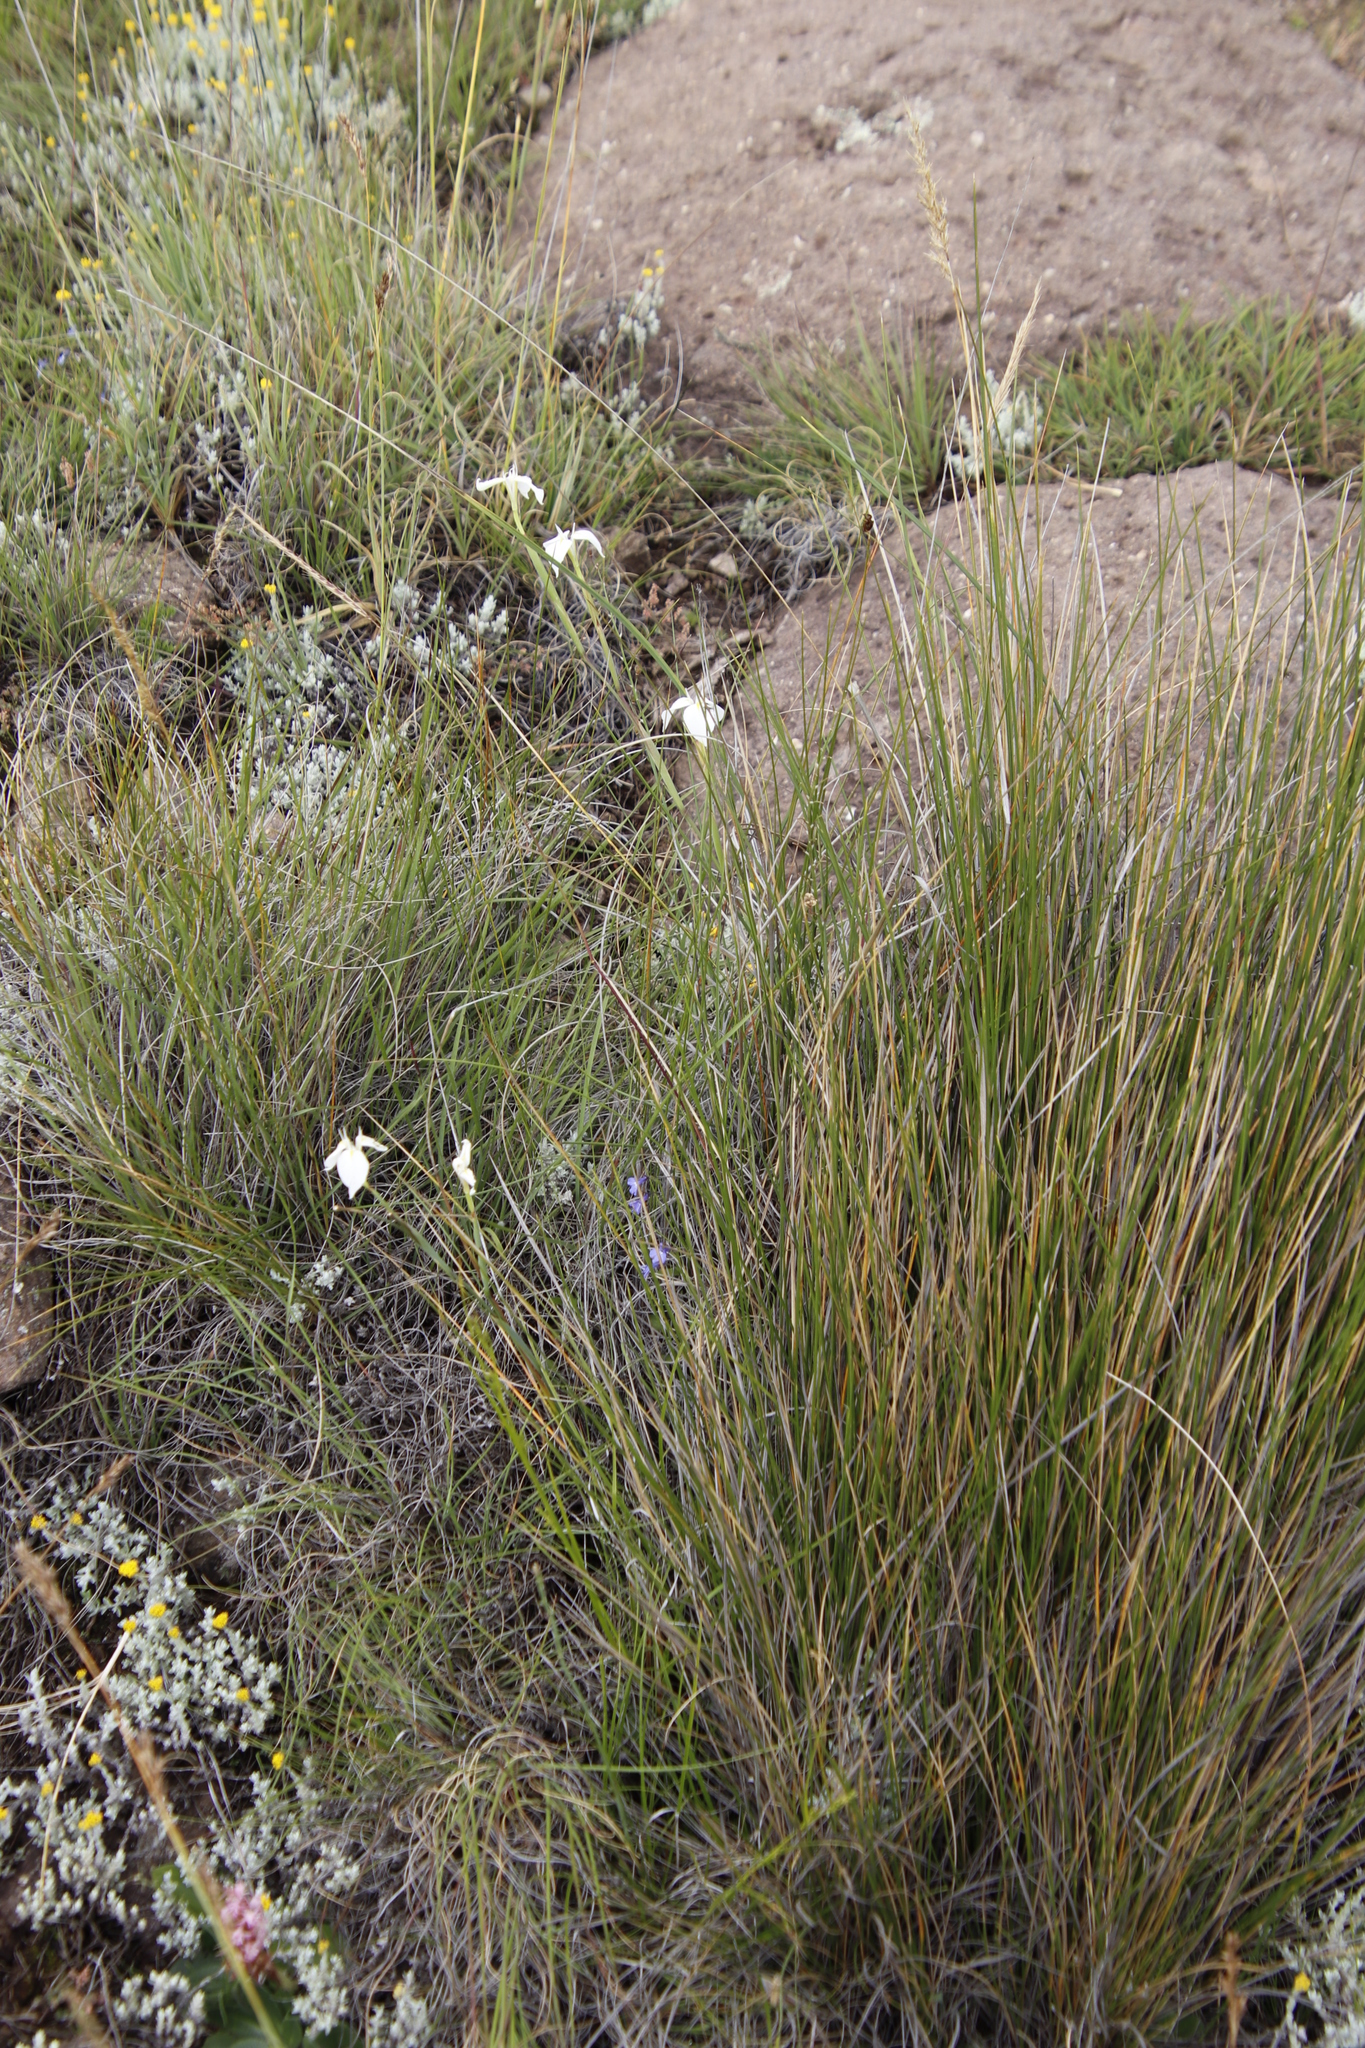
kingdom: Plantae
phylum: Tracheophyta
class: Liliopsida
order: Asparagales
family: Iridaceae
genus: Moraea
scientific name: Moraea albicuspa
